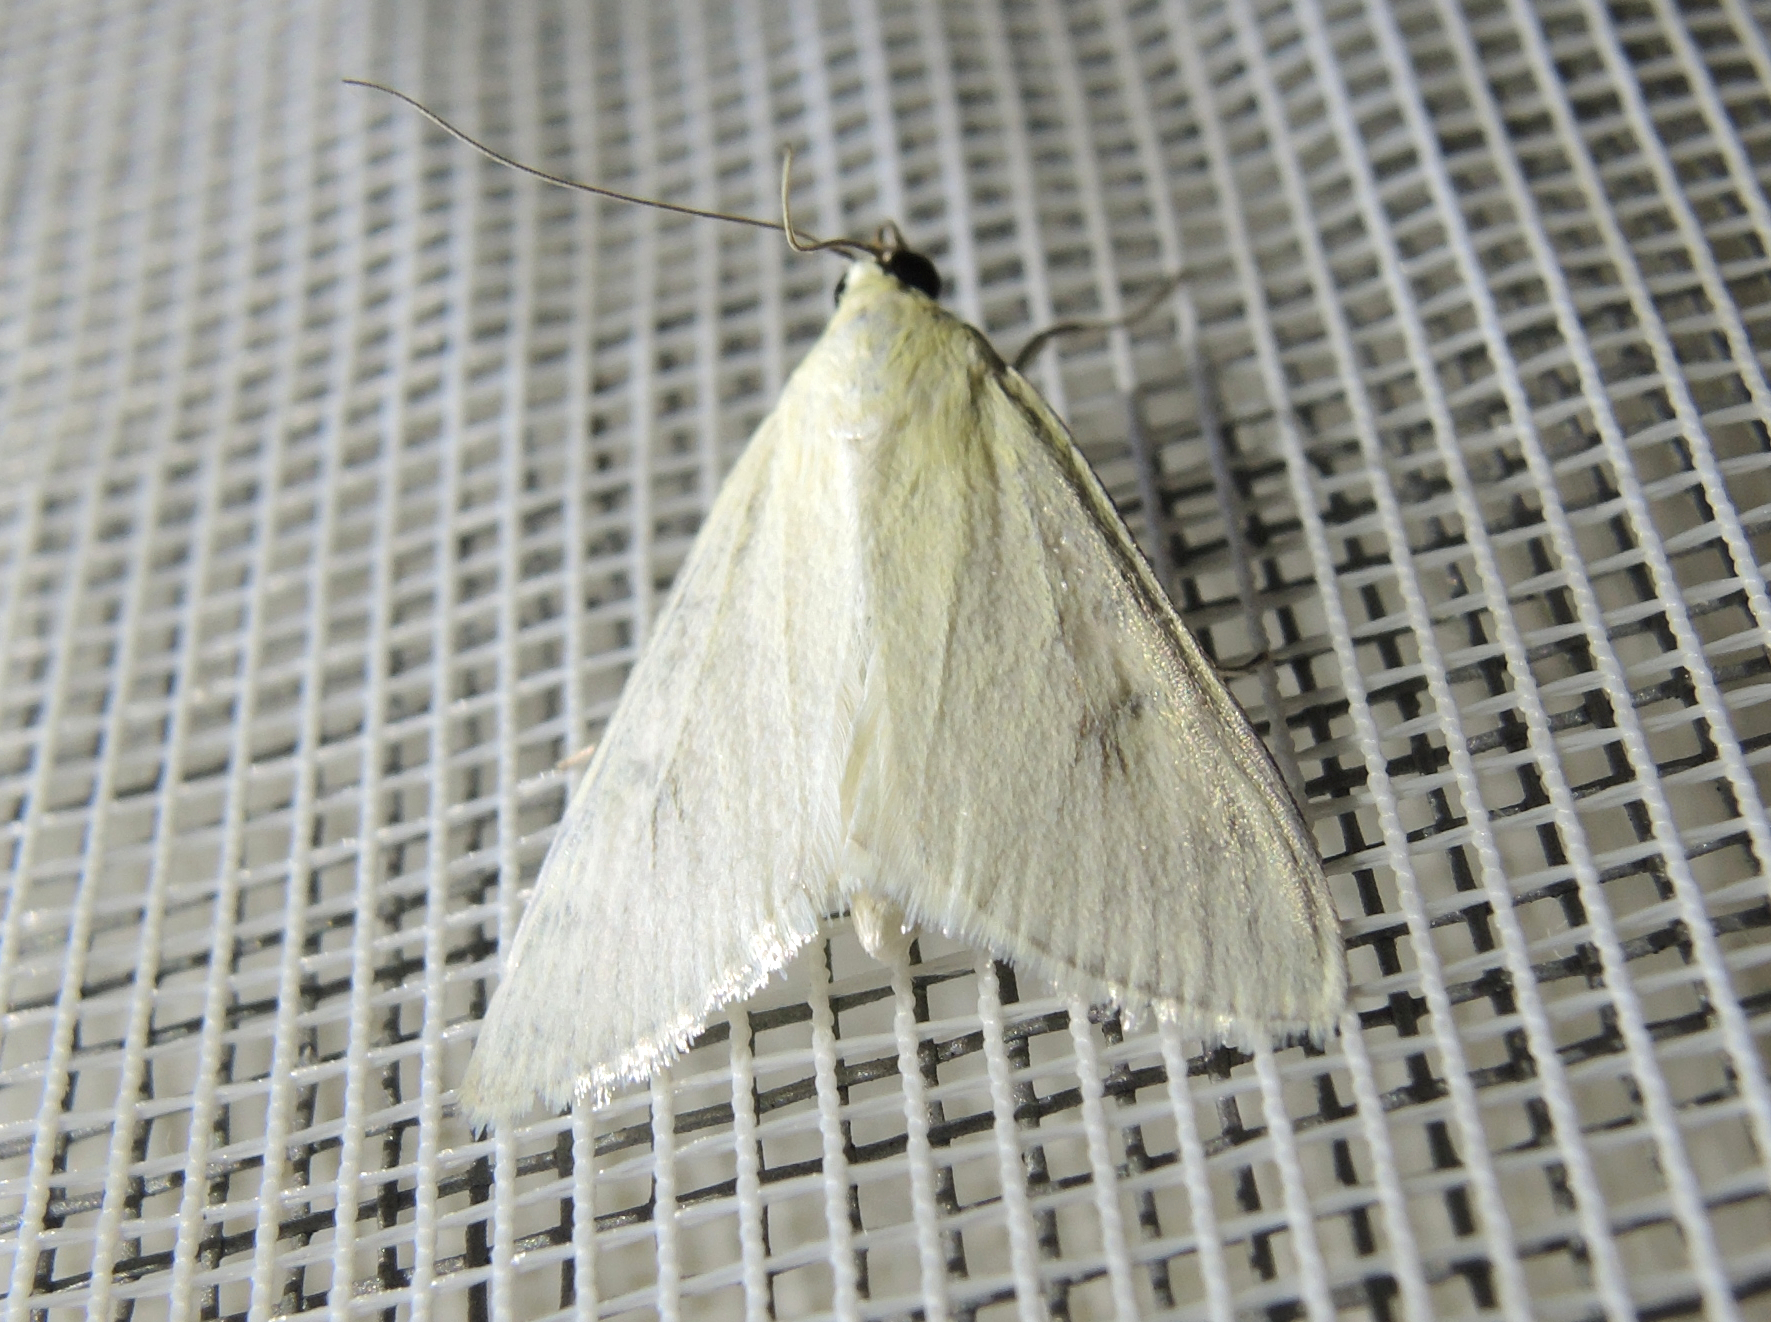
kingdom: Animalia
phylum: Arthropoda
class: Insecta
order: Lepidoptera
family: Crambidae
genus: Sitochroa
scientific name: Sitochroa palealis
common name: Greenish-yellow sitochroa moth
